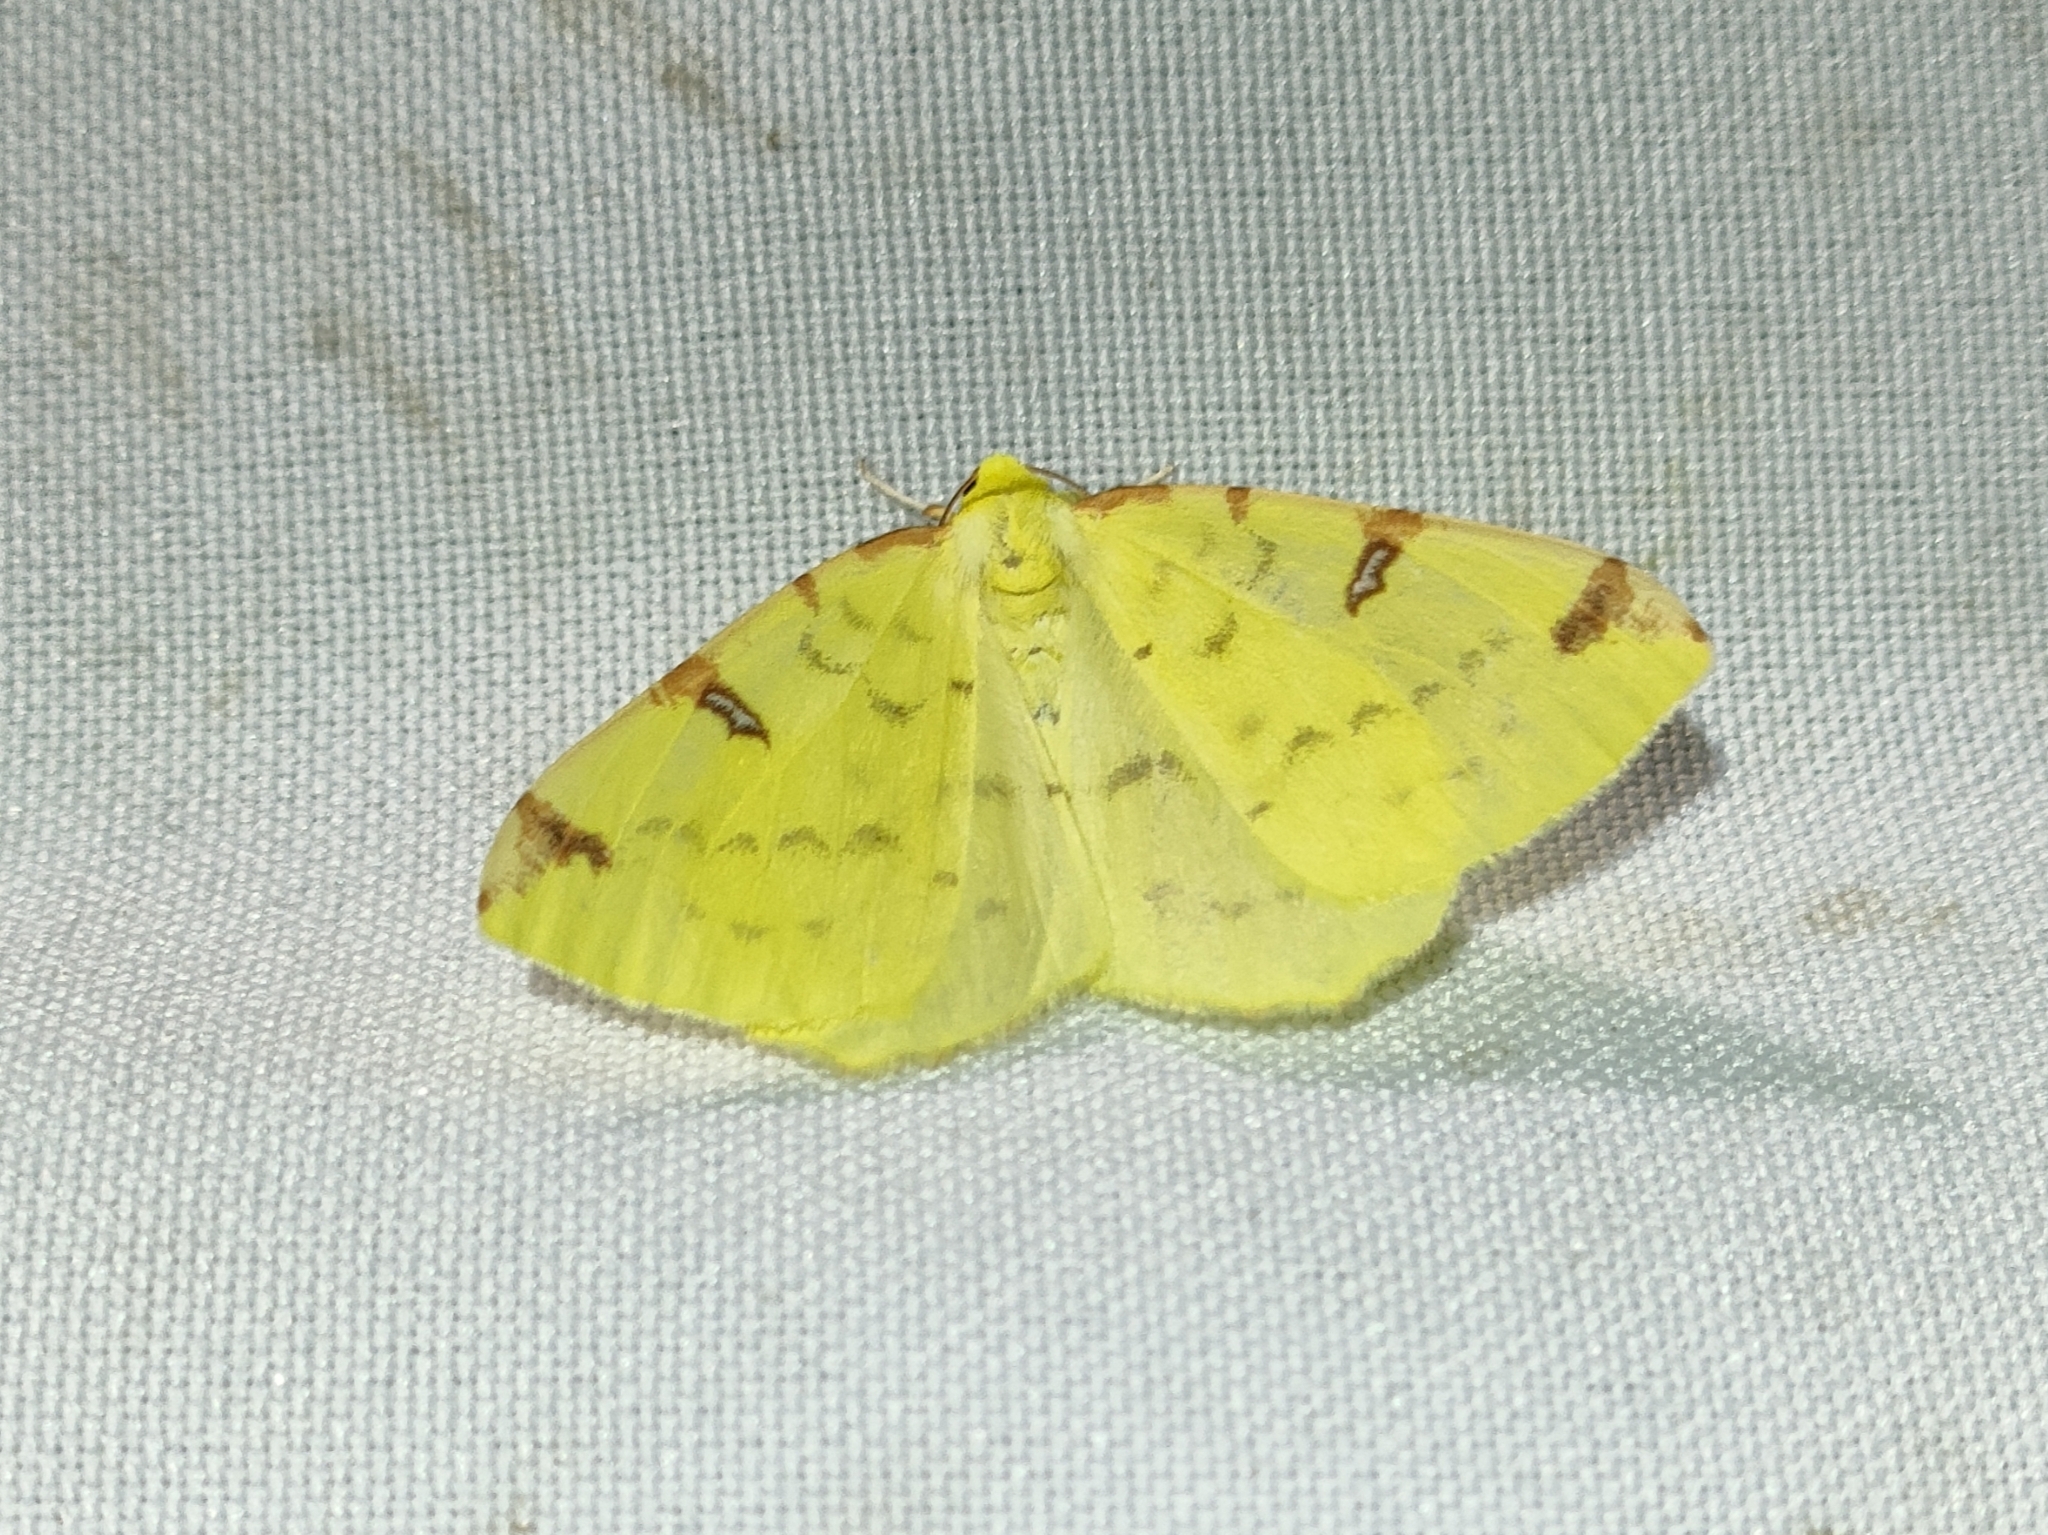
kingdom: Animalia
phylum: Arthropoda
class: Insecta
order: Lepidoptera
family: Geometridae
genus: Opisthograptis
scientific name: Opisthograptis luteolata
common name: Brimstone moth
